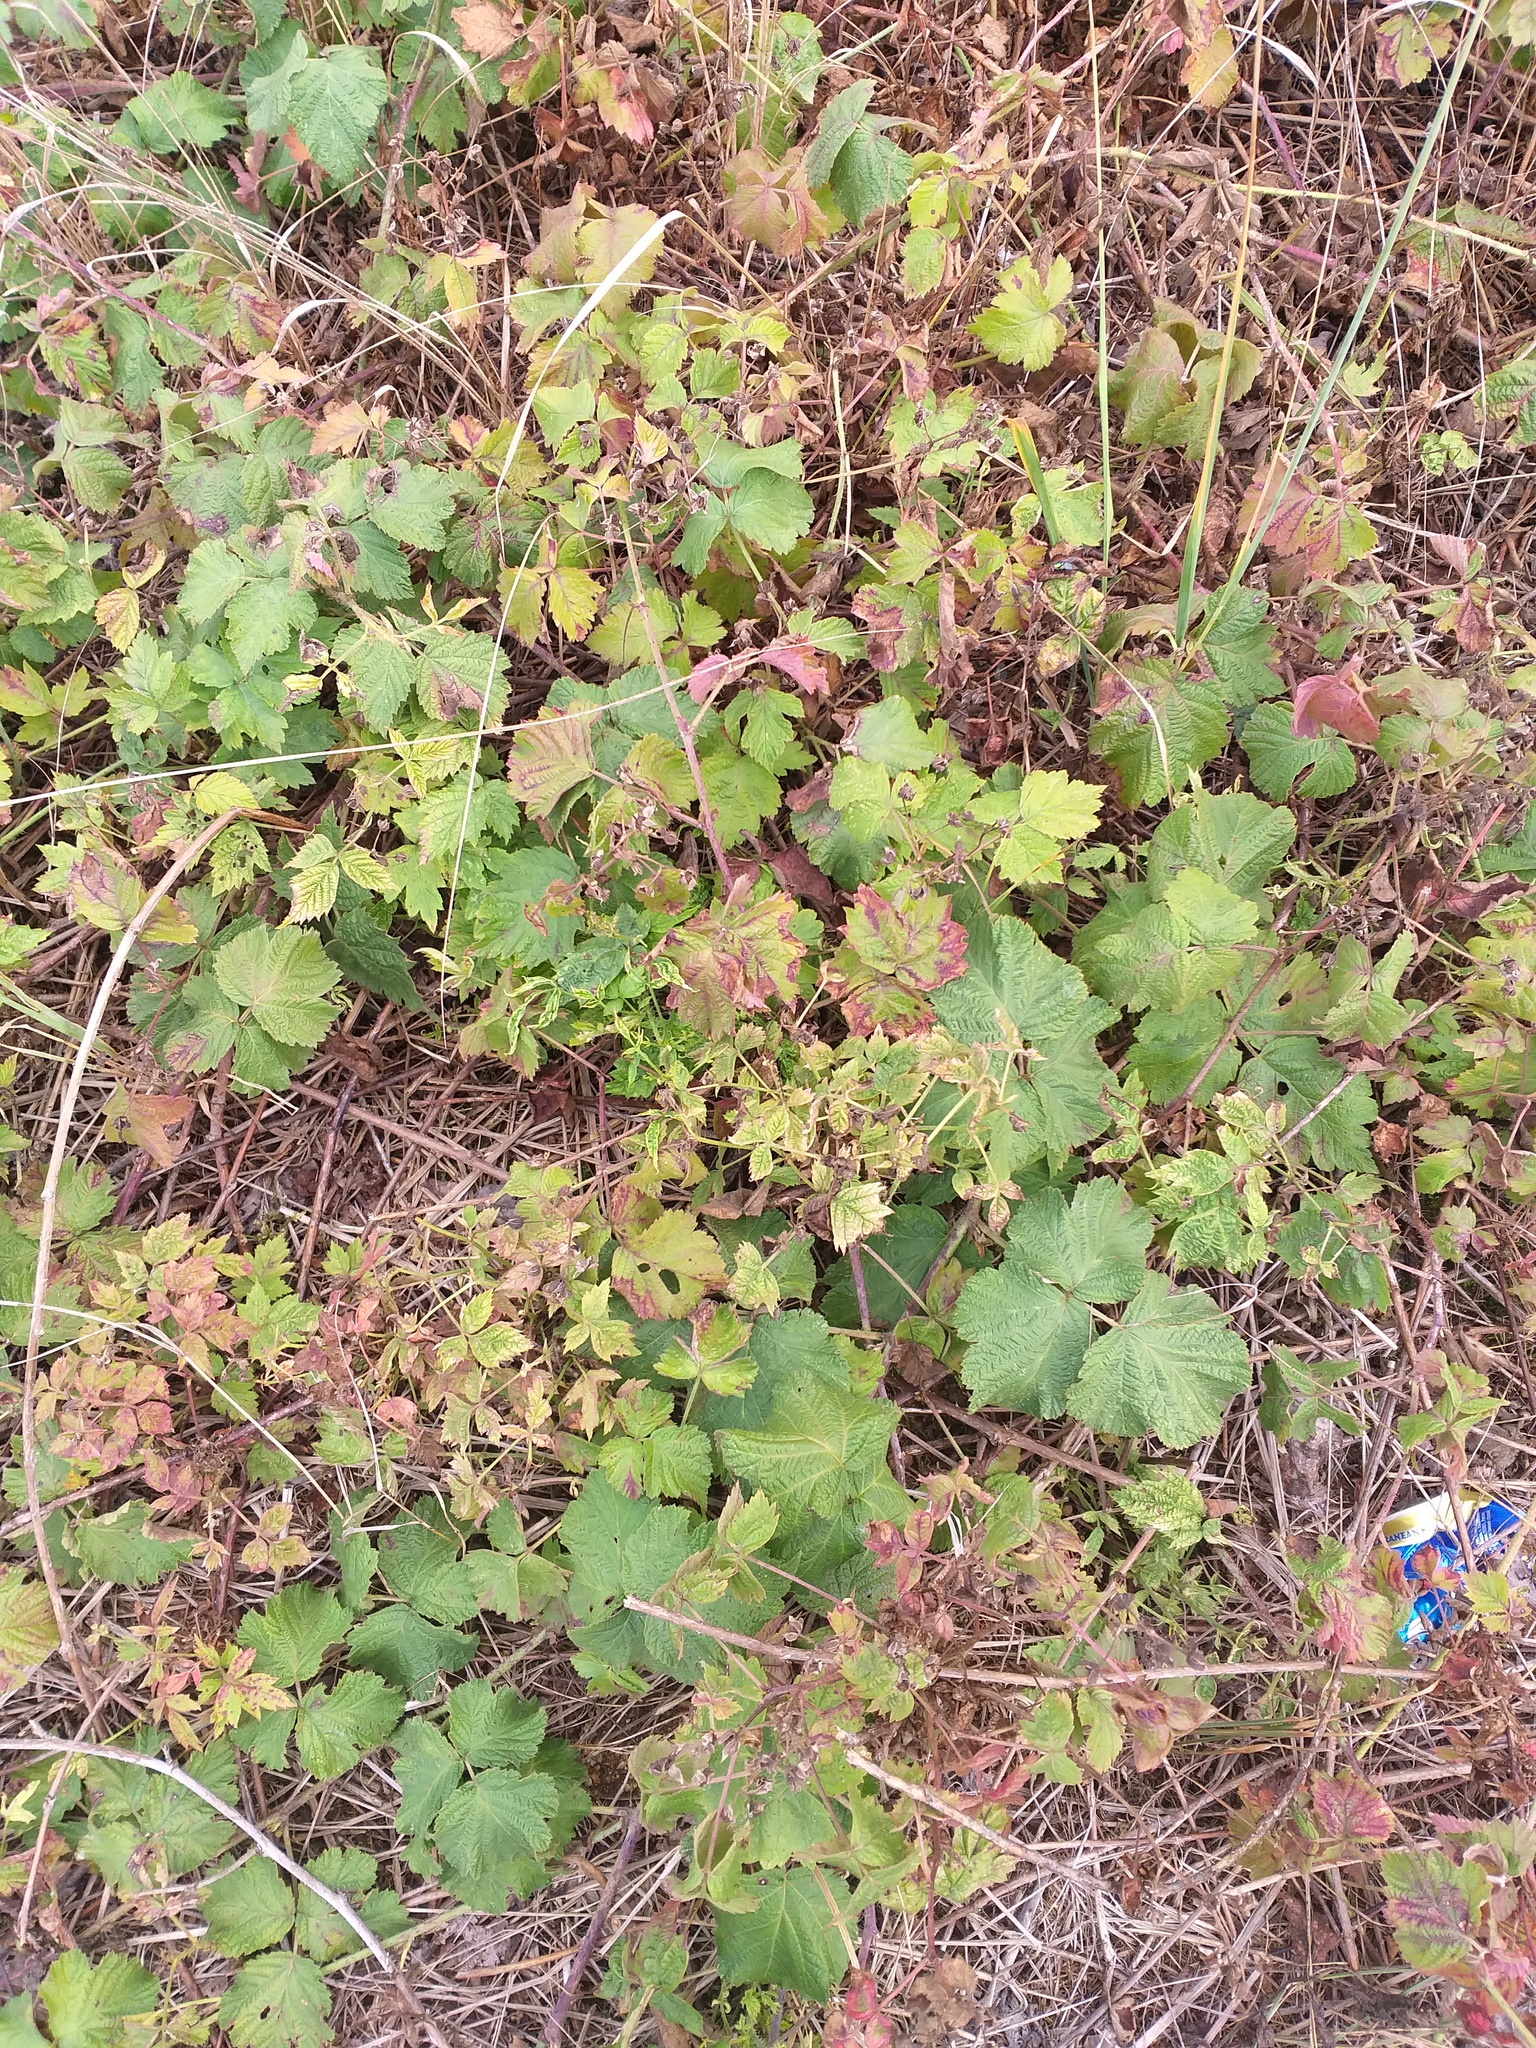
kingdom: Plantae
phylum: Tracheophyta
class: Magnoliopsida
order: Rosales
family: Rosaceae
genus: Rubus
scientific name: Rubus caesius
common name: Dewberry
